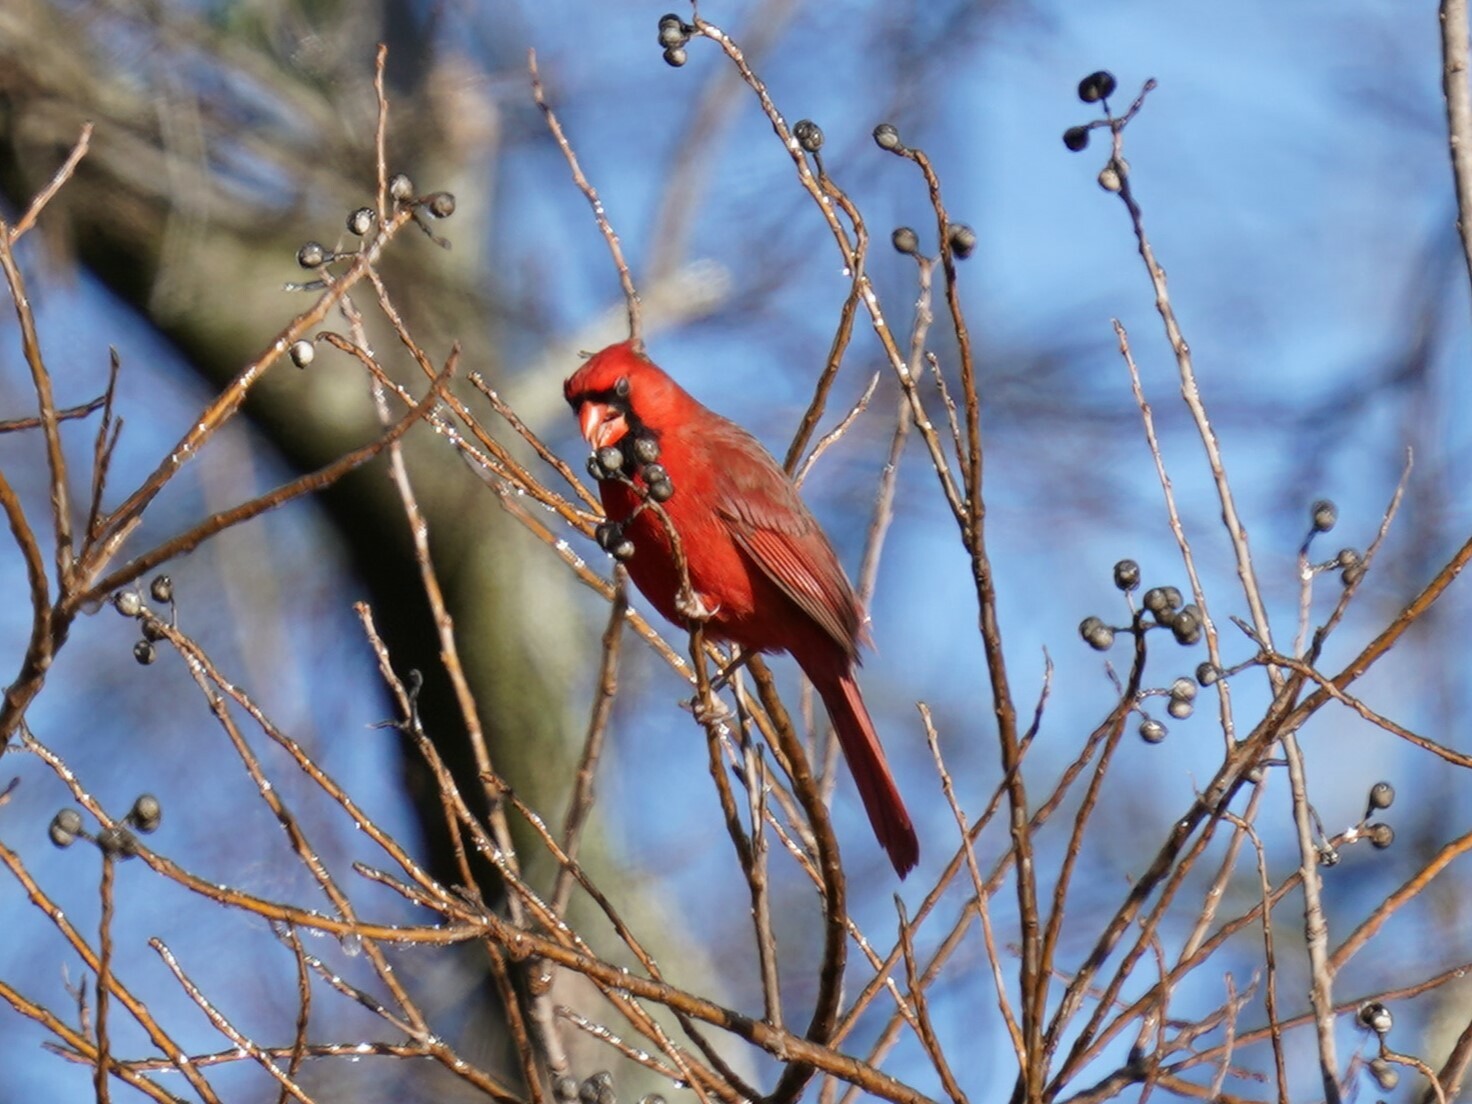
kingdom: Animalia
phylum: Chordata
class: Aves
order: Passeriformes
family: Cardinalidae
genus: Cardinalis
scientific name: Cardinalis cardinalis
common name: Northern cardinal
